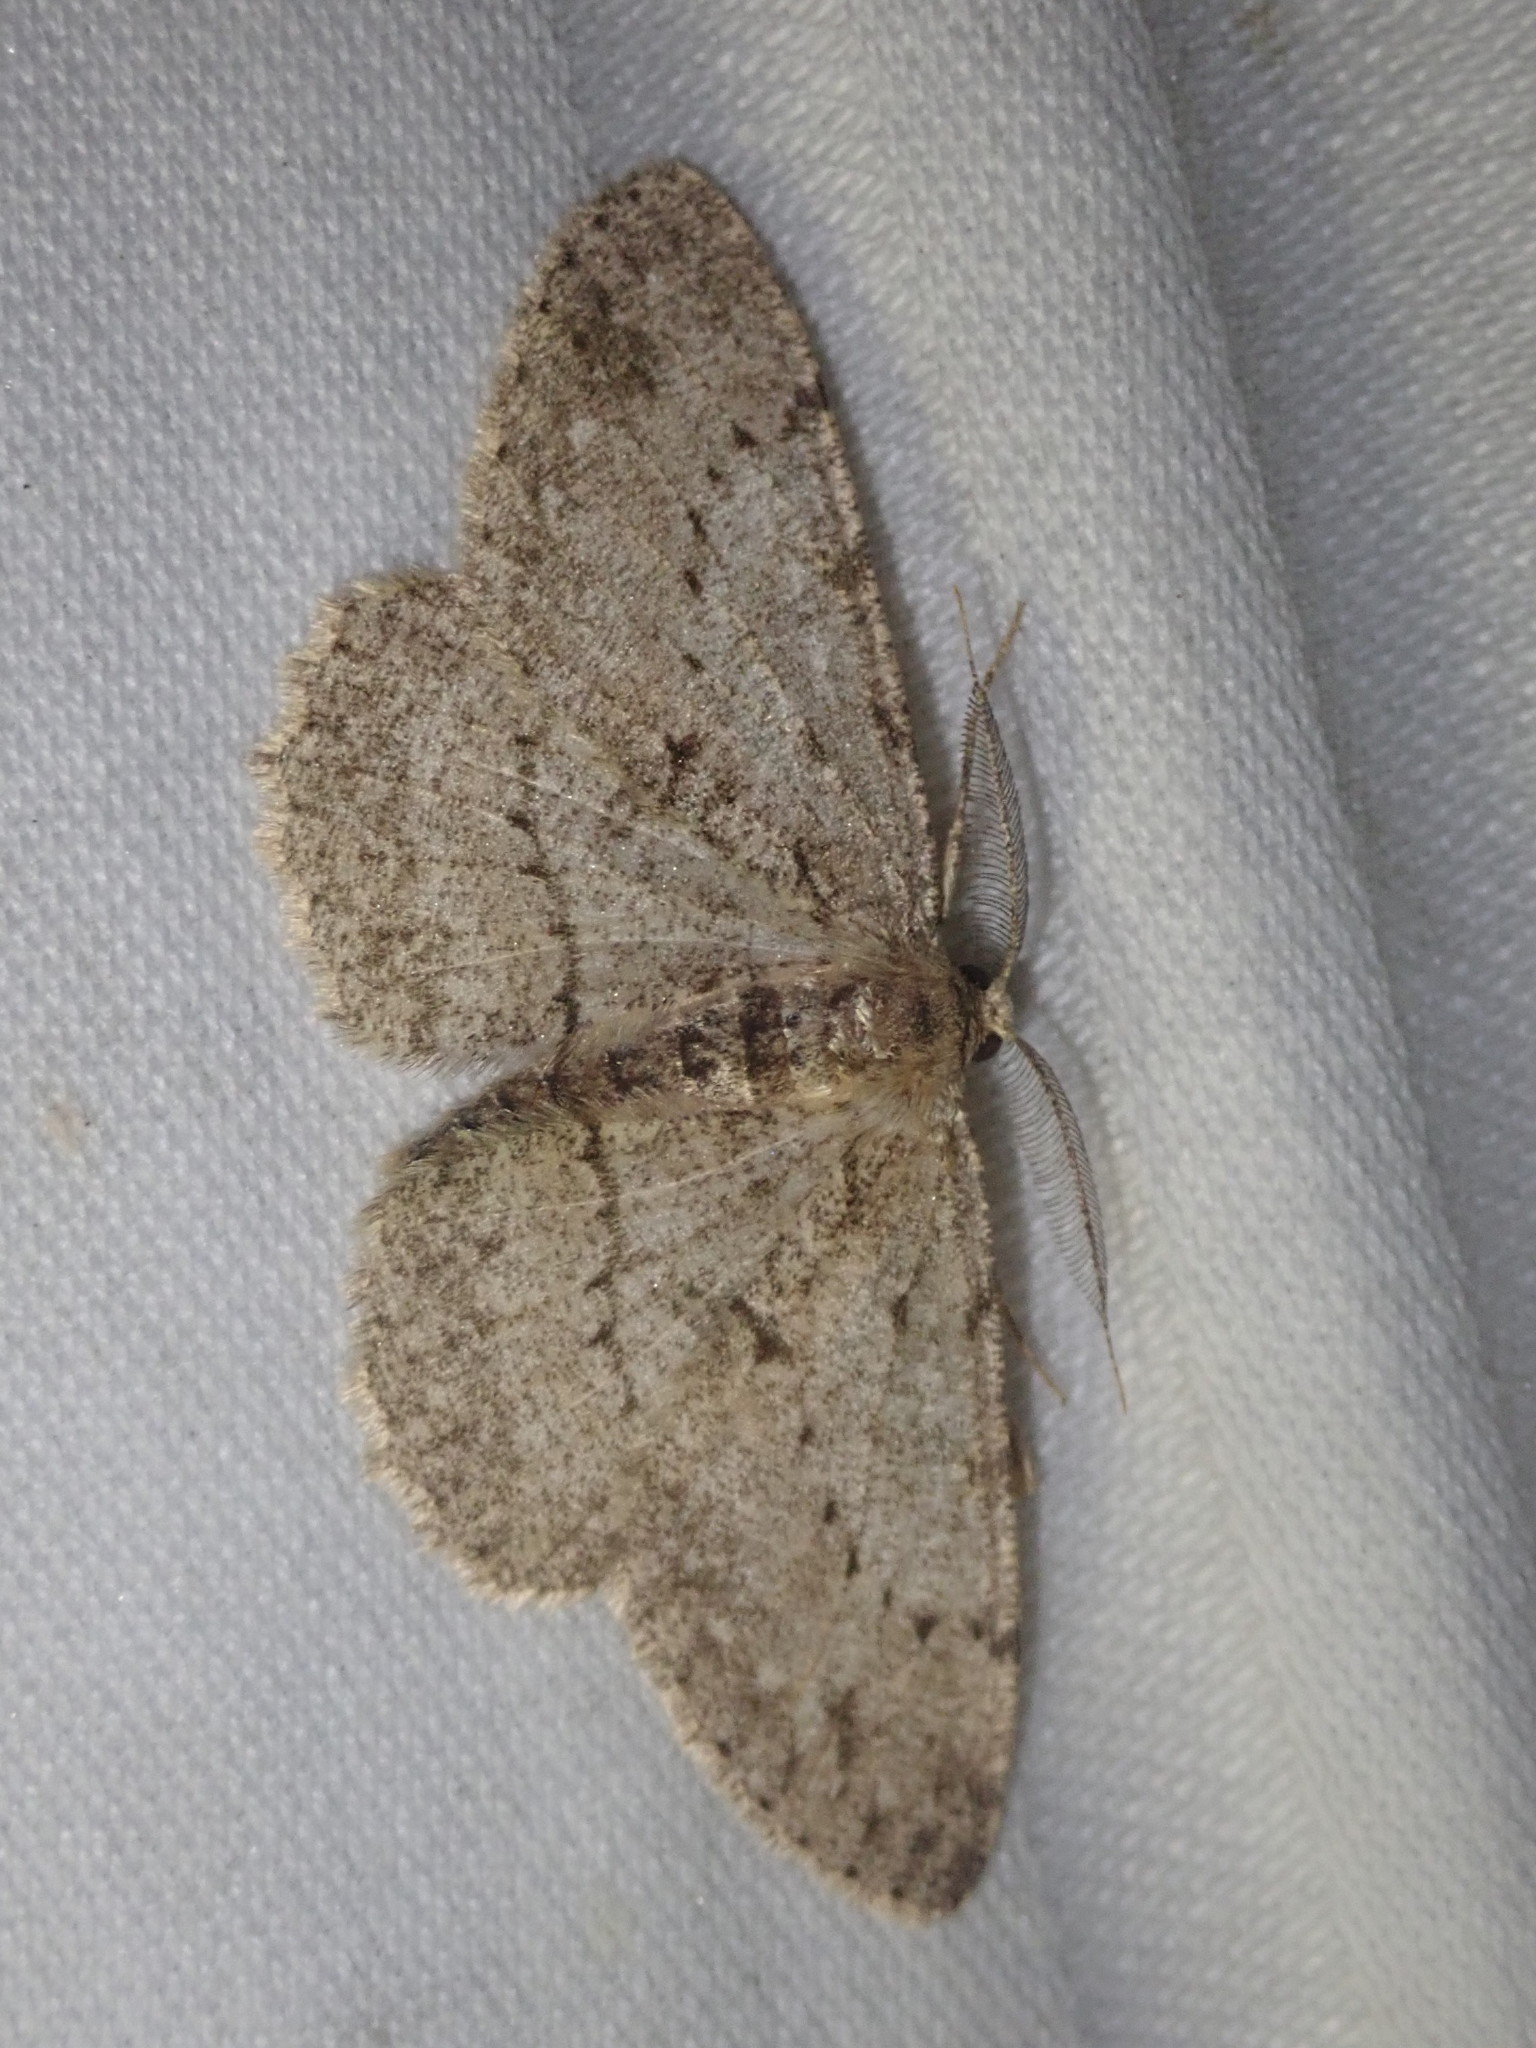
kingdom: Animalia
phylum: Arthropoda
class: Insecta
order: Lepidoptera
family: Geometridae
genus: Hypomecis
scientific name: Hypomecis punctinalis
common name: Pale oak beauty
